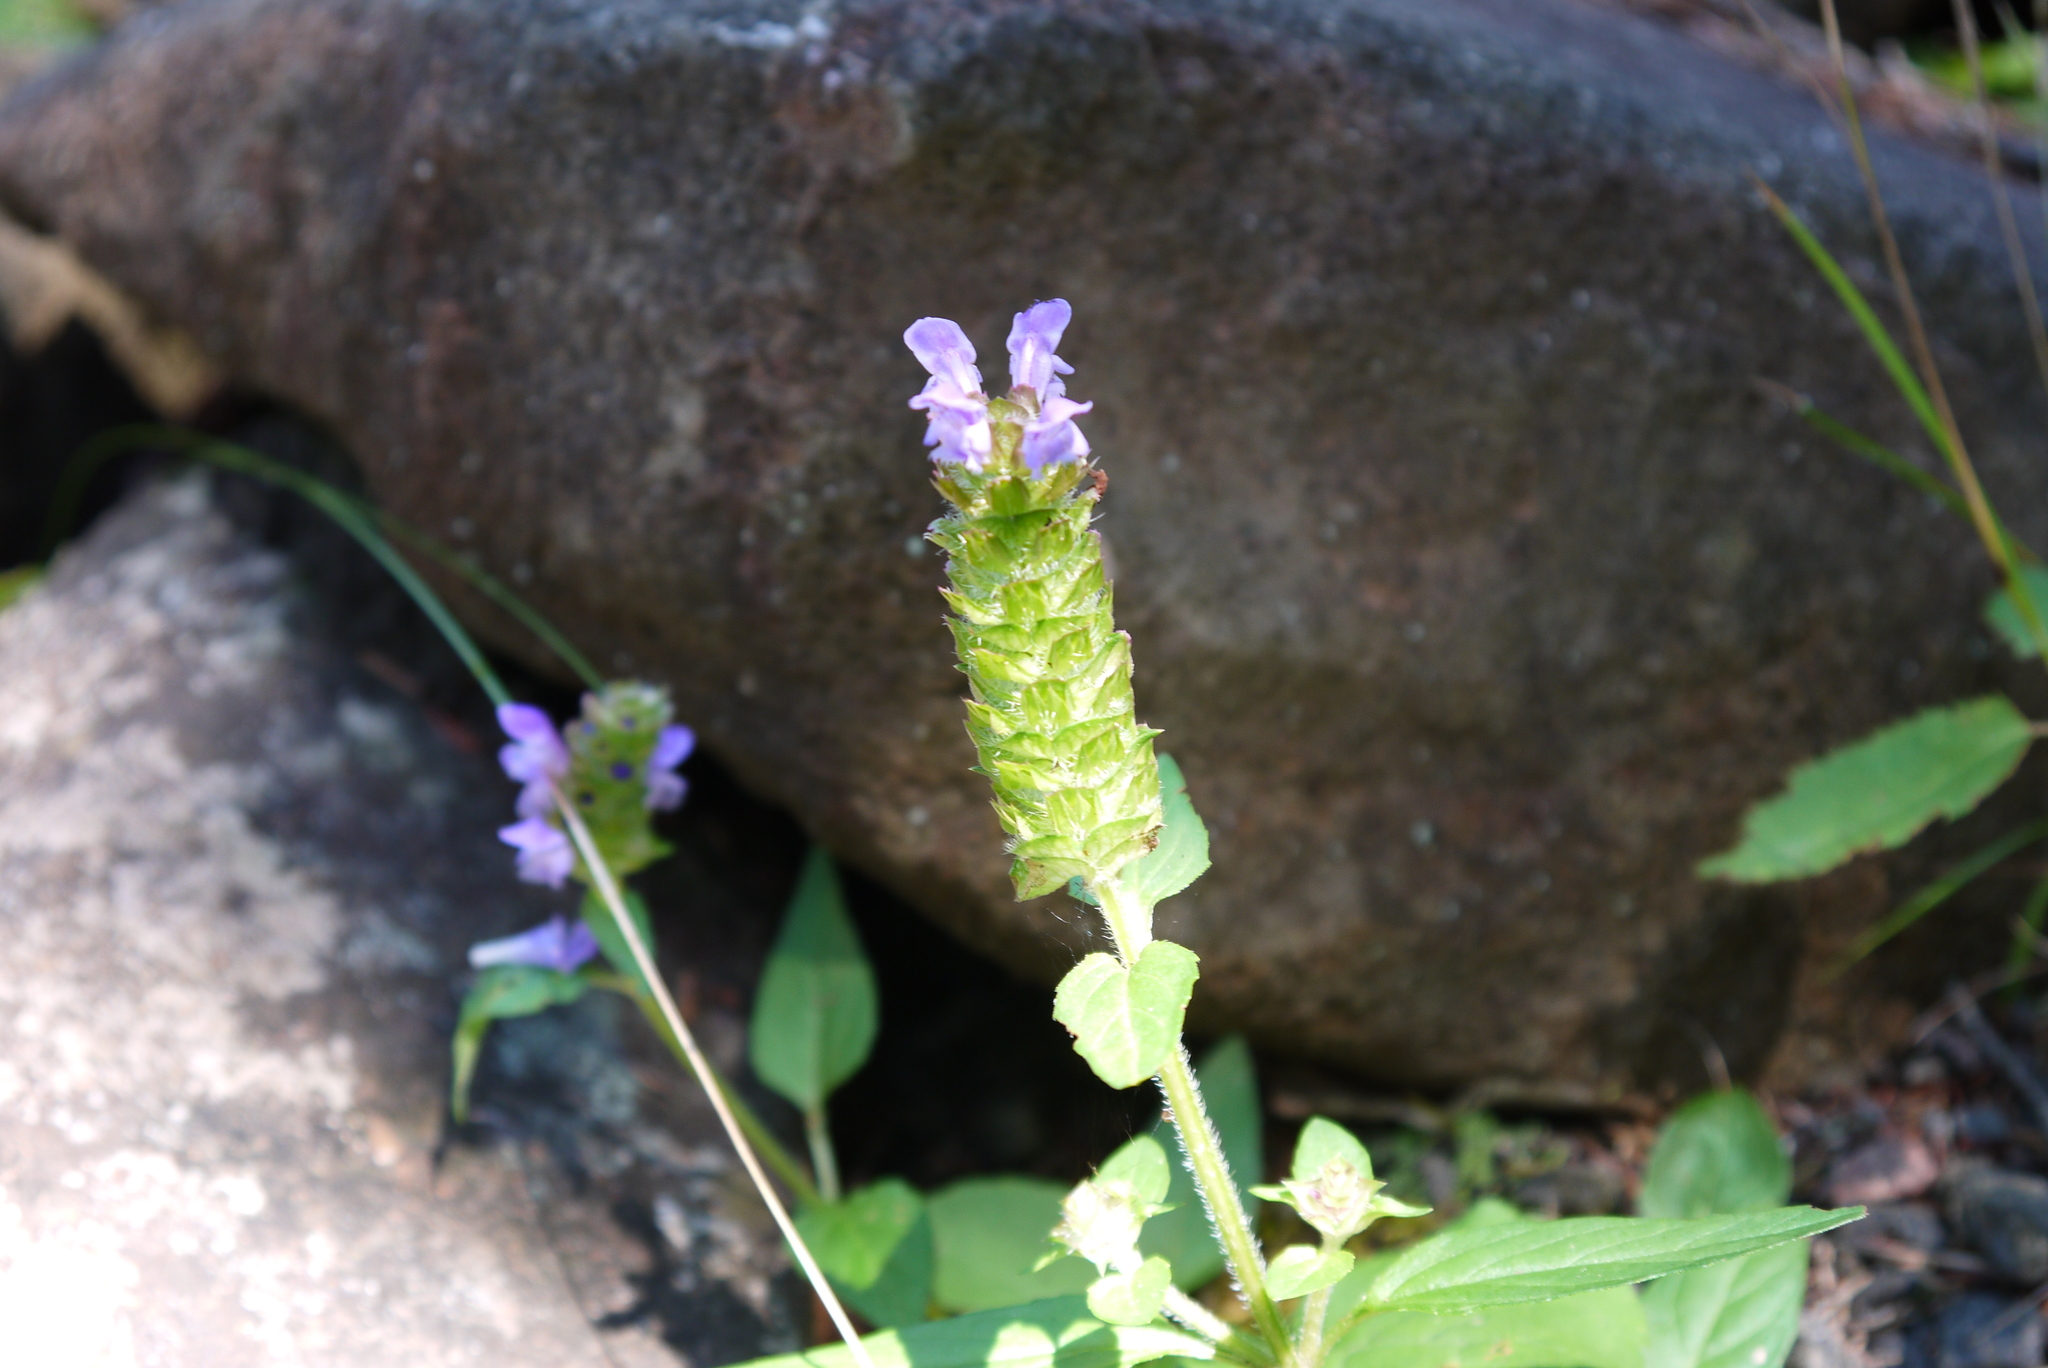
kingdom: Plantae
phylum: Tracheophyta
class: Magnoliopsida
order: Lamiales
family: Lamiaceae
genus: Prunella
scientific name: Prunella vulgaris
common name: Heal-all
